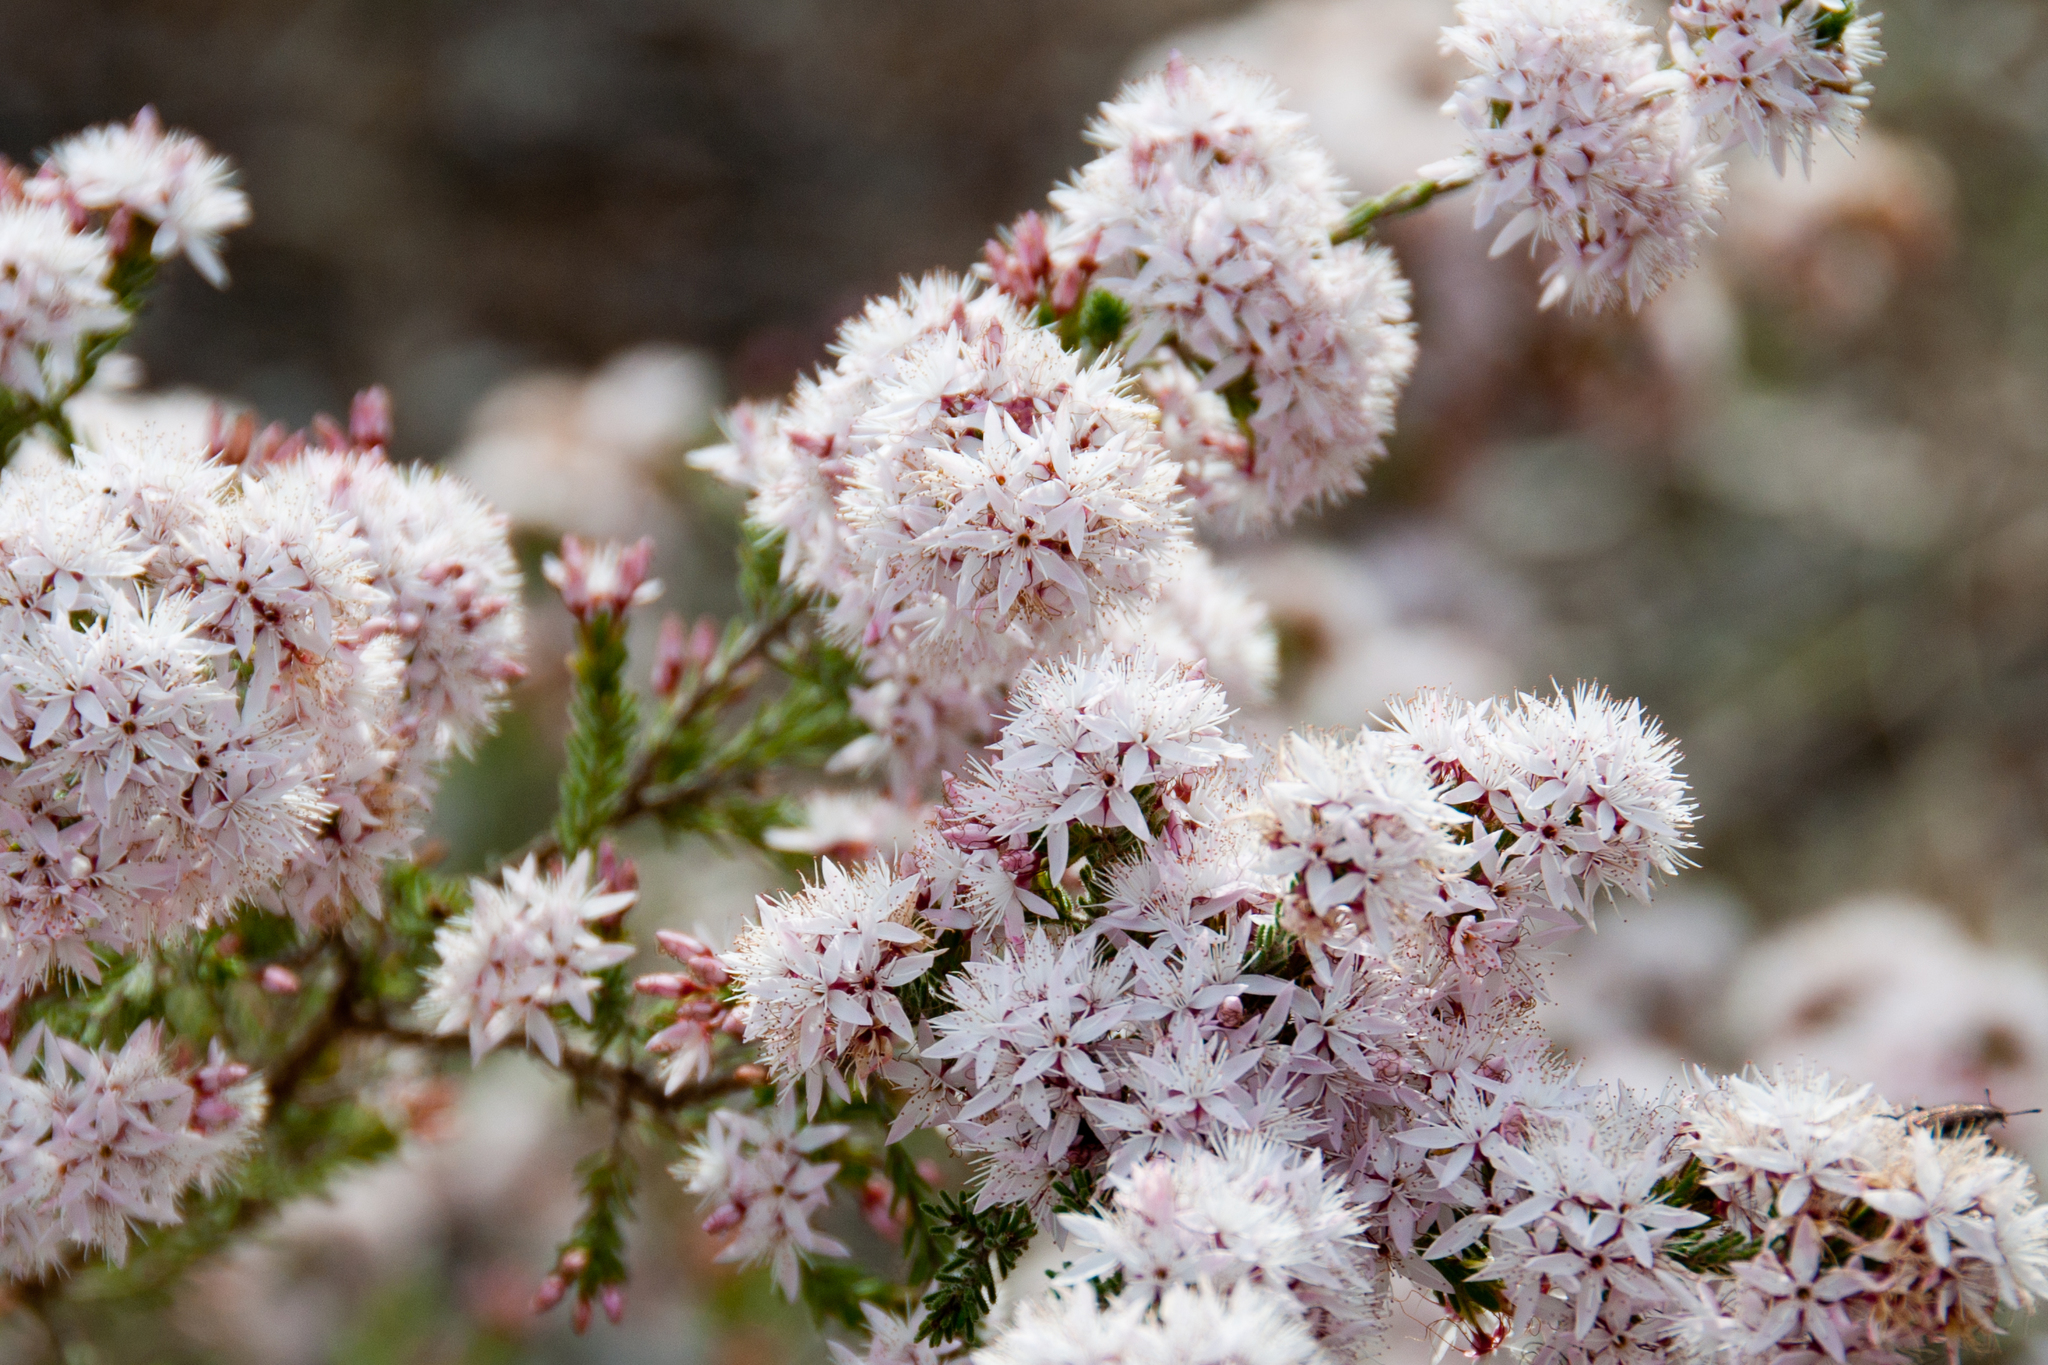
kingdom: Plantae
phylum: Tracheophyta
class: Magnoliopsida
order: Myrtales
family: Myrtaceae
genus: Calytrix
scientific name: Calytrix tetragona
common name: Common fringe myrtle
